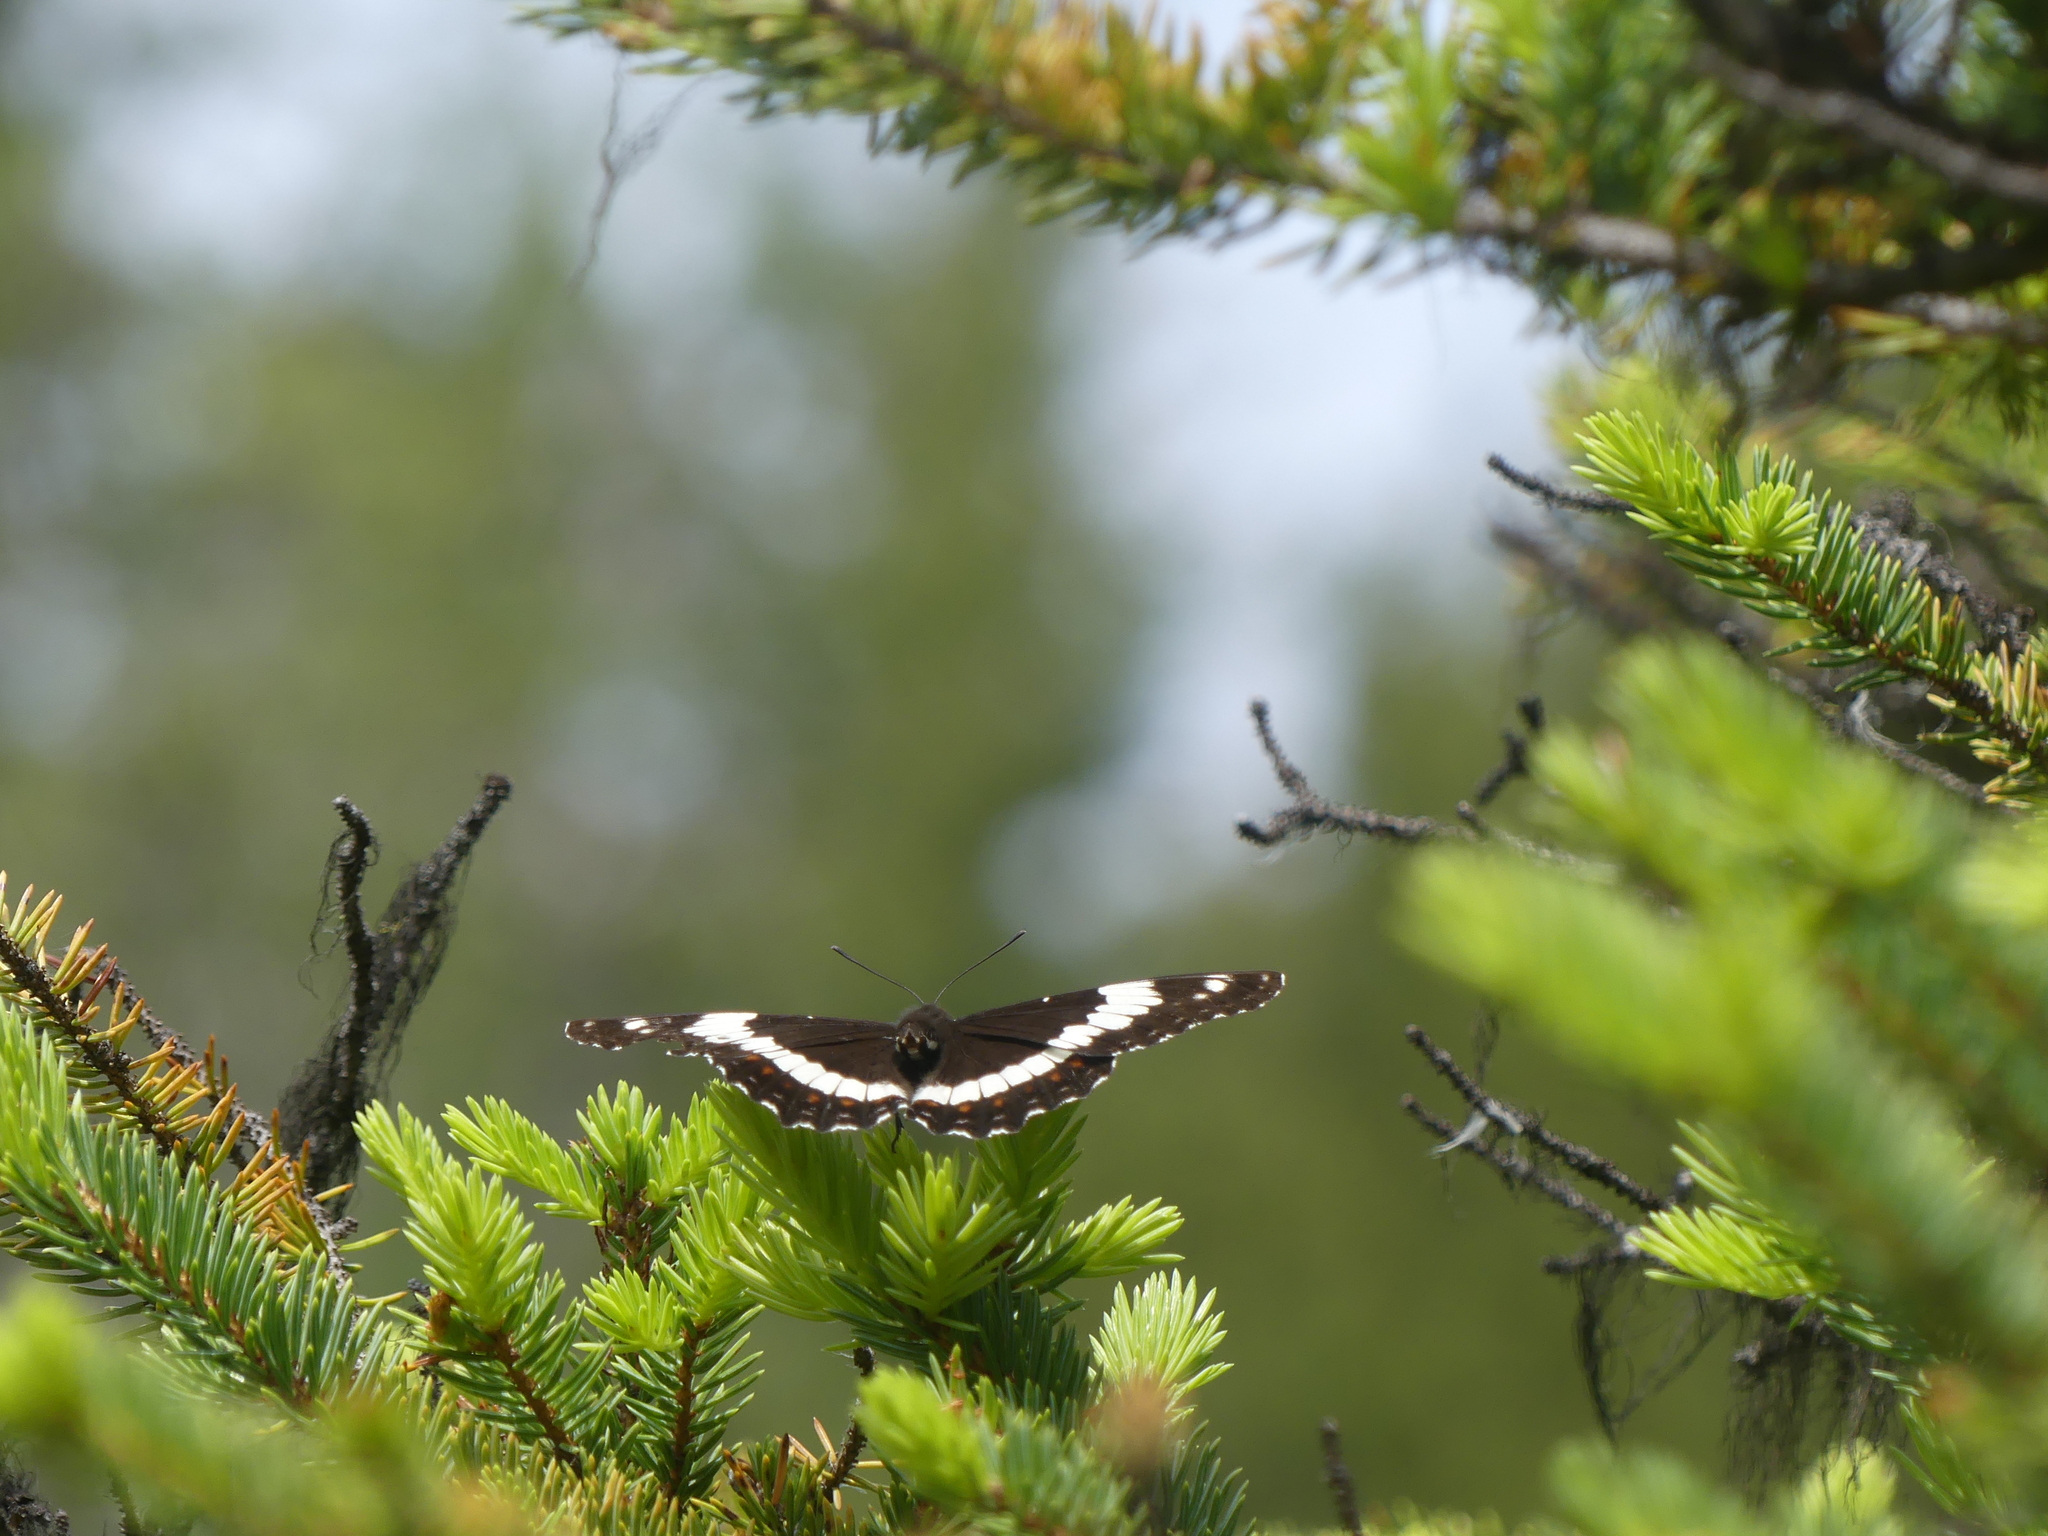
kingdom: Animalia
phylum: Arthropoda
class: Insecta
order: Lepidoptera
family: Nymphalidae
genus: Limenitis
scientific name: Limenitis arthemis
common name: Red-spotted admiral
